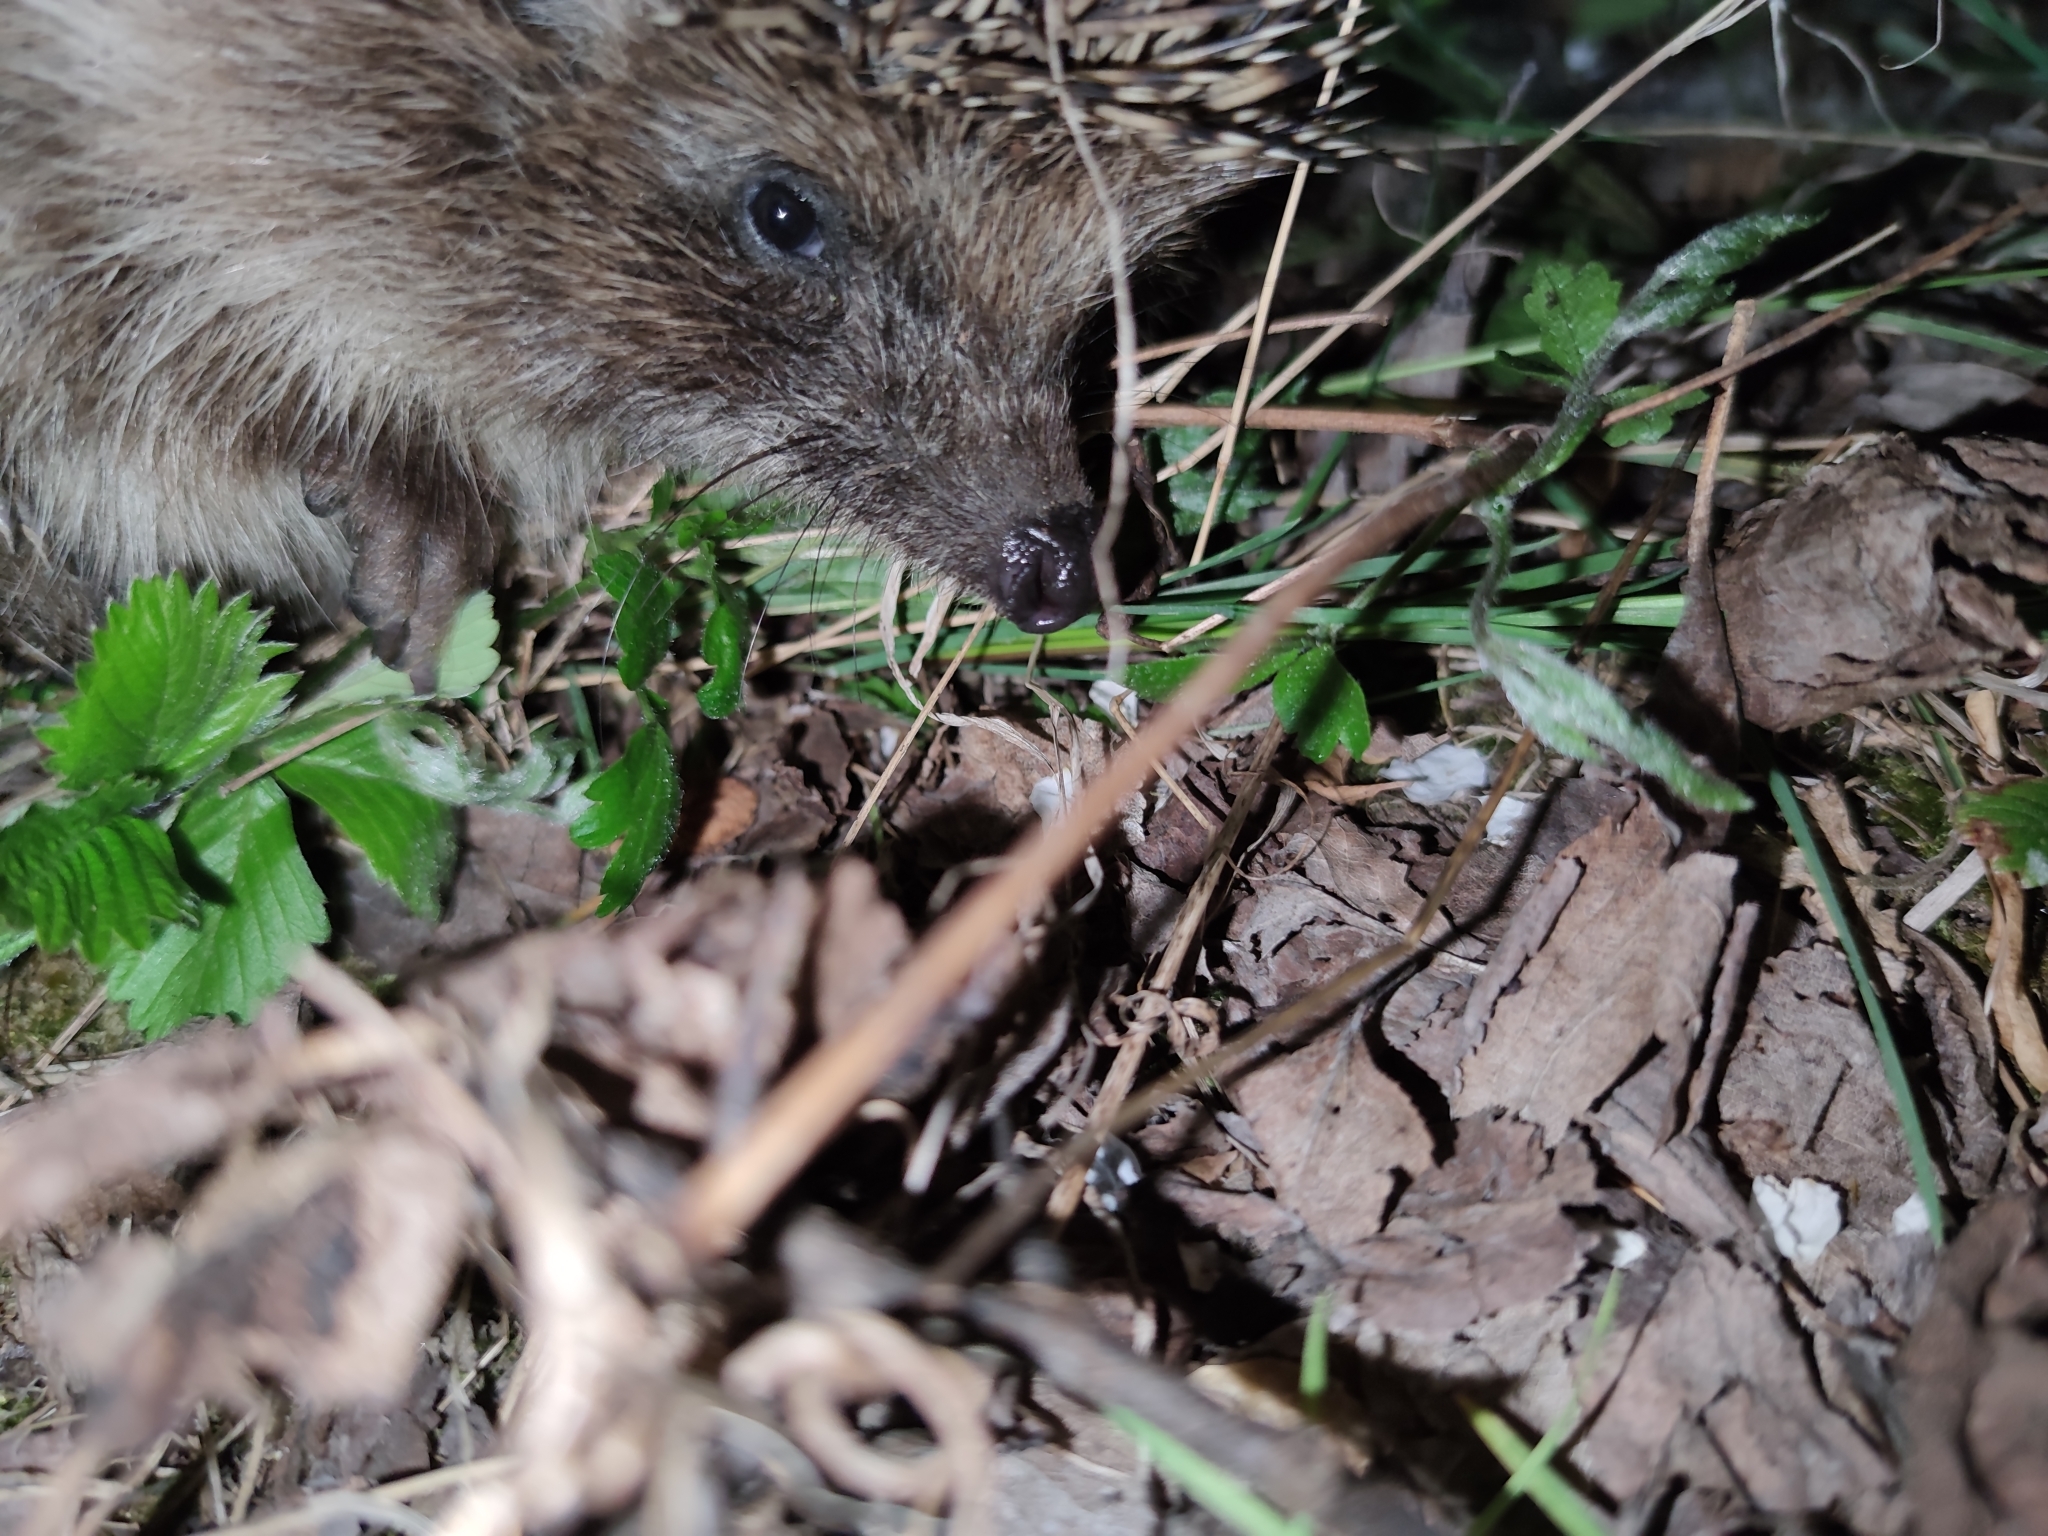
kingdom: Animalia
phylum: Chordata
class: Mammalia
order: Erinaceomorpha
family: Erinaceidae
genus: Erinaceus
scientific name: Erinaceus roumanicus
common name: Northern white-breasted hedgehog
